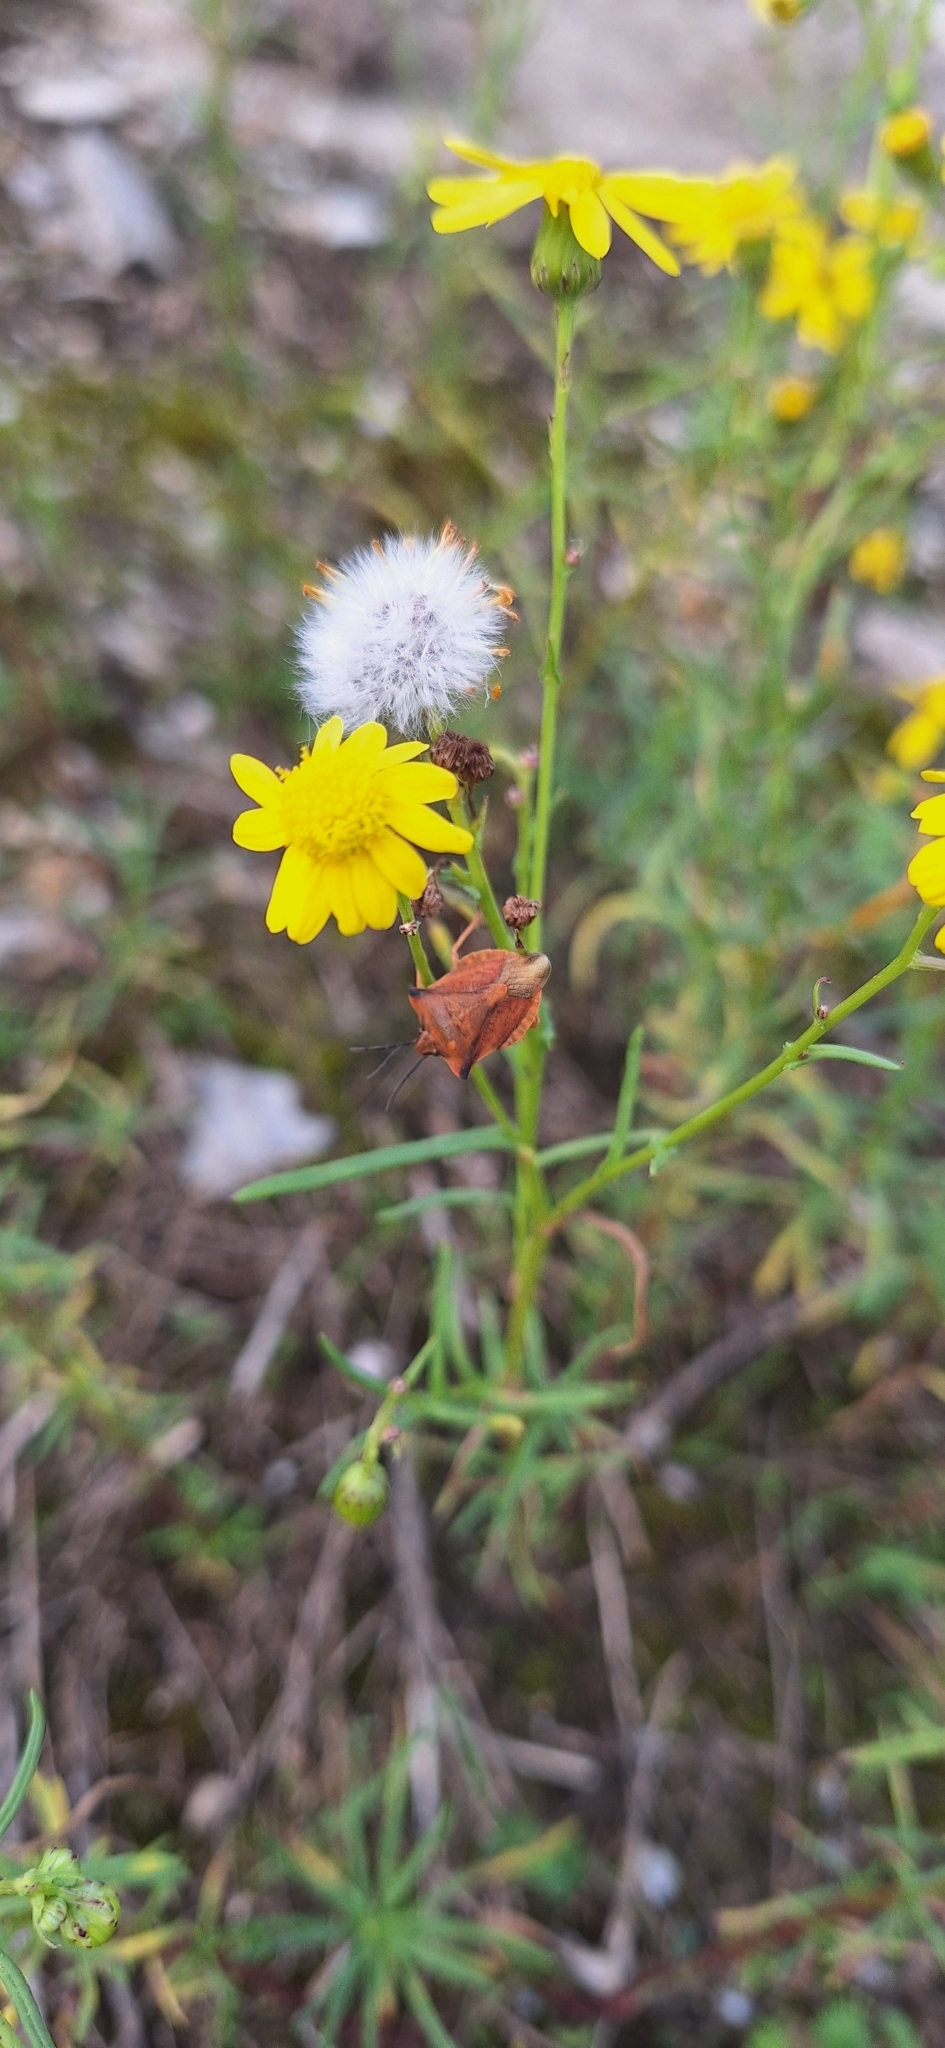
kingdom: Animalia
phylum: Arthropoda
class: Insecta
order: Hemiptera
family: Pentatomidae
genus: Carpocoris
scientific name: Carpocoris fuscispinus
